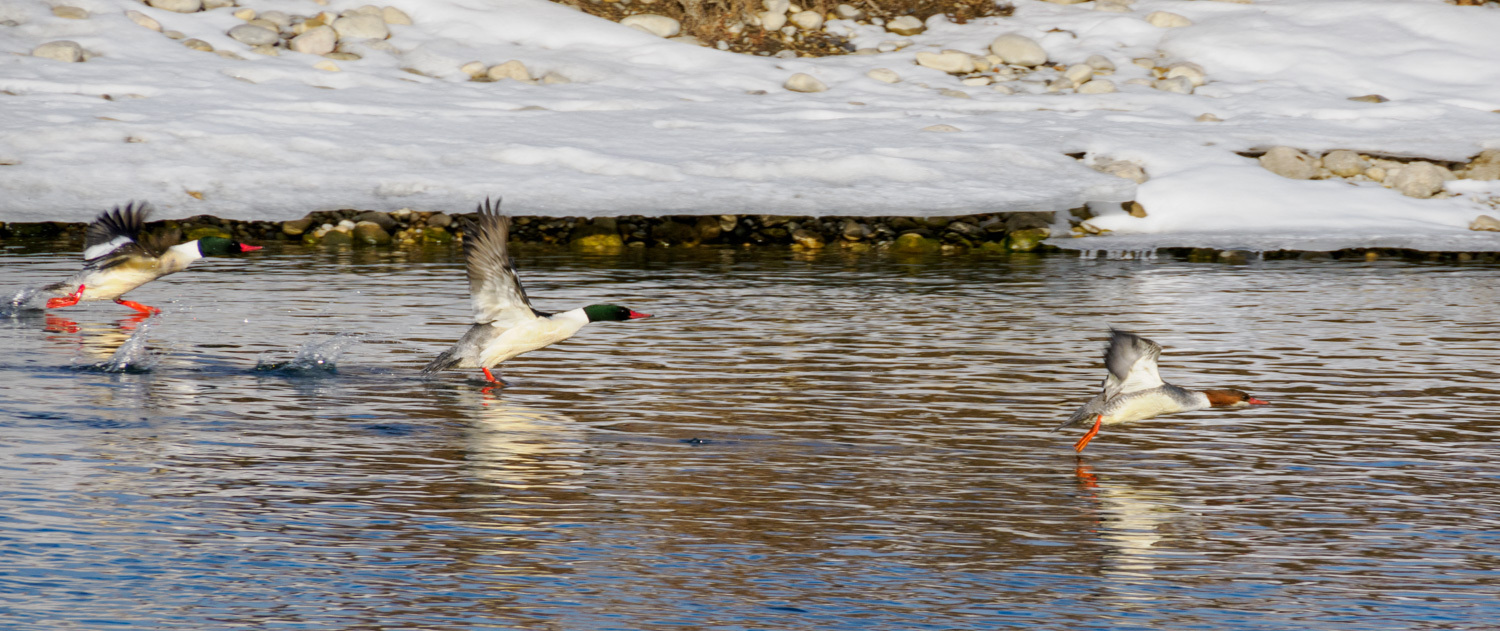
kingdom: Animalia
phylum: Chordata
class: Aves
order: Anseriformes
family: Anatidae
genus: Mergus
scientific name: Mergus merganser
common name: Common merganser
